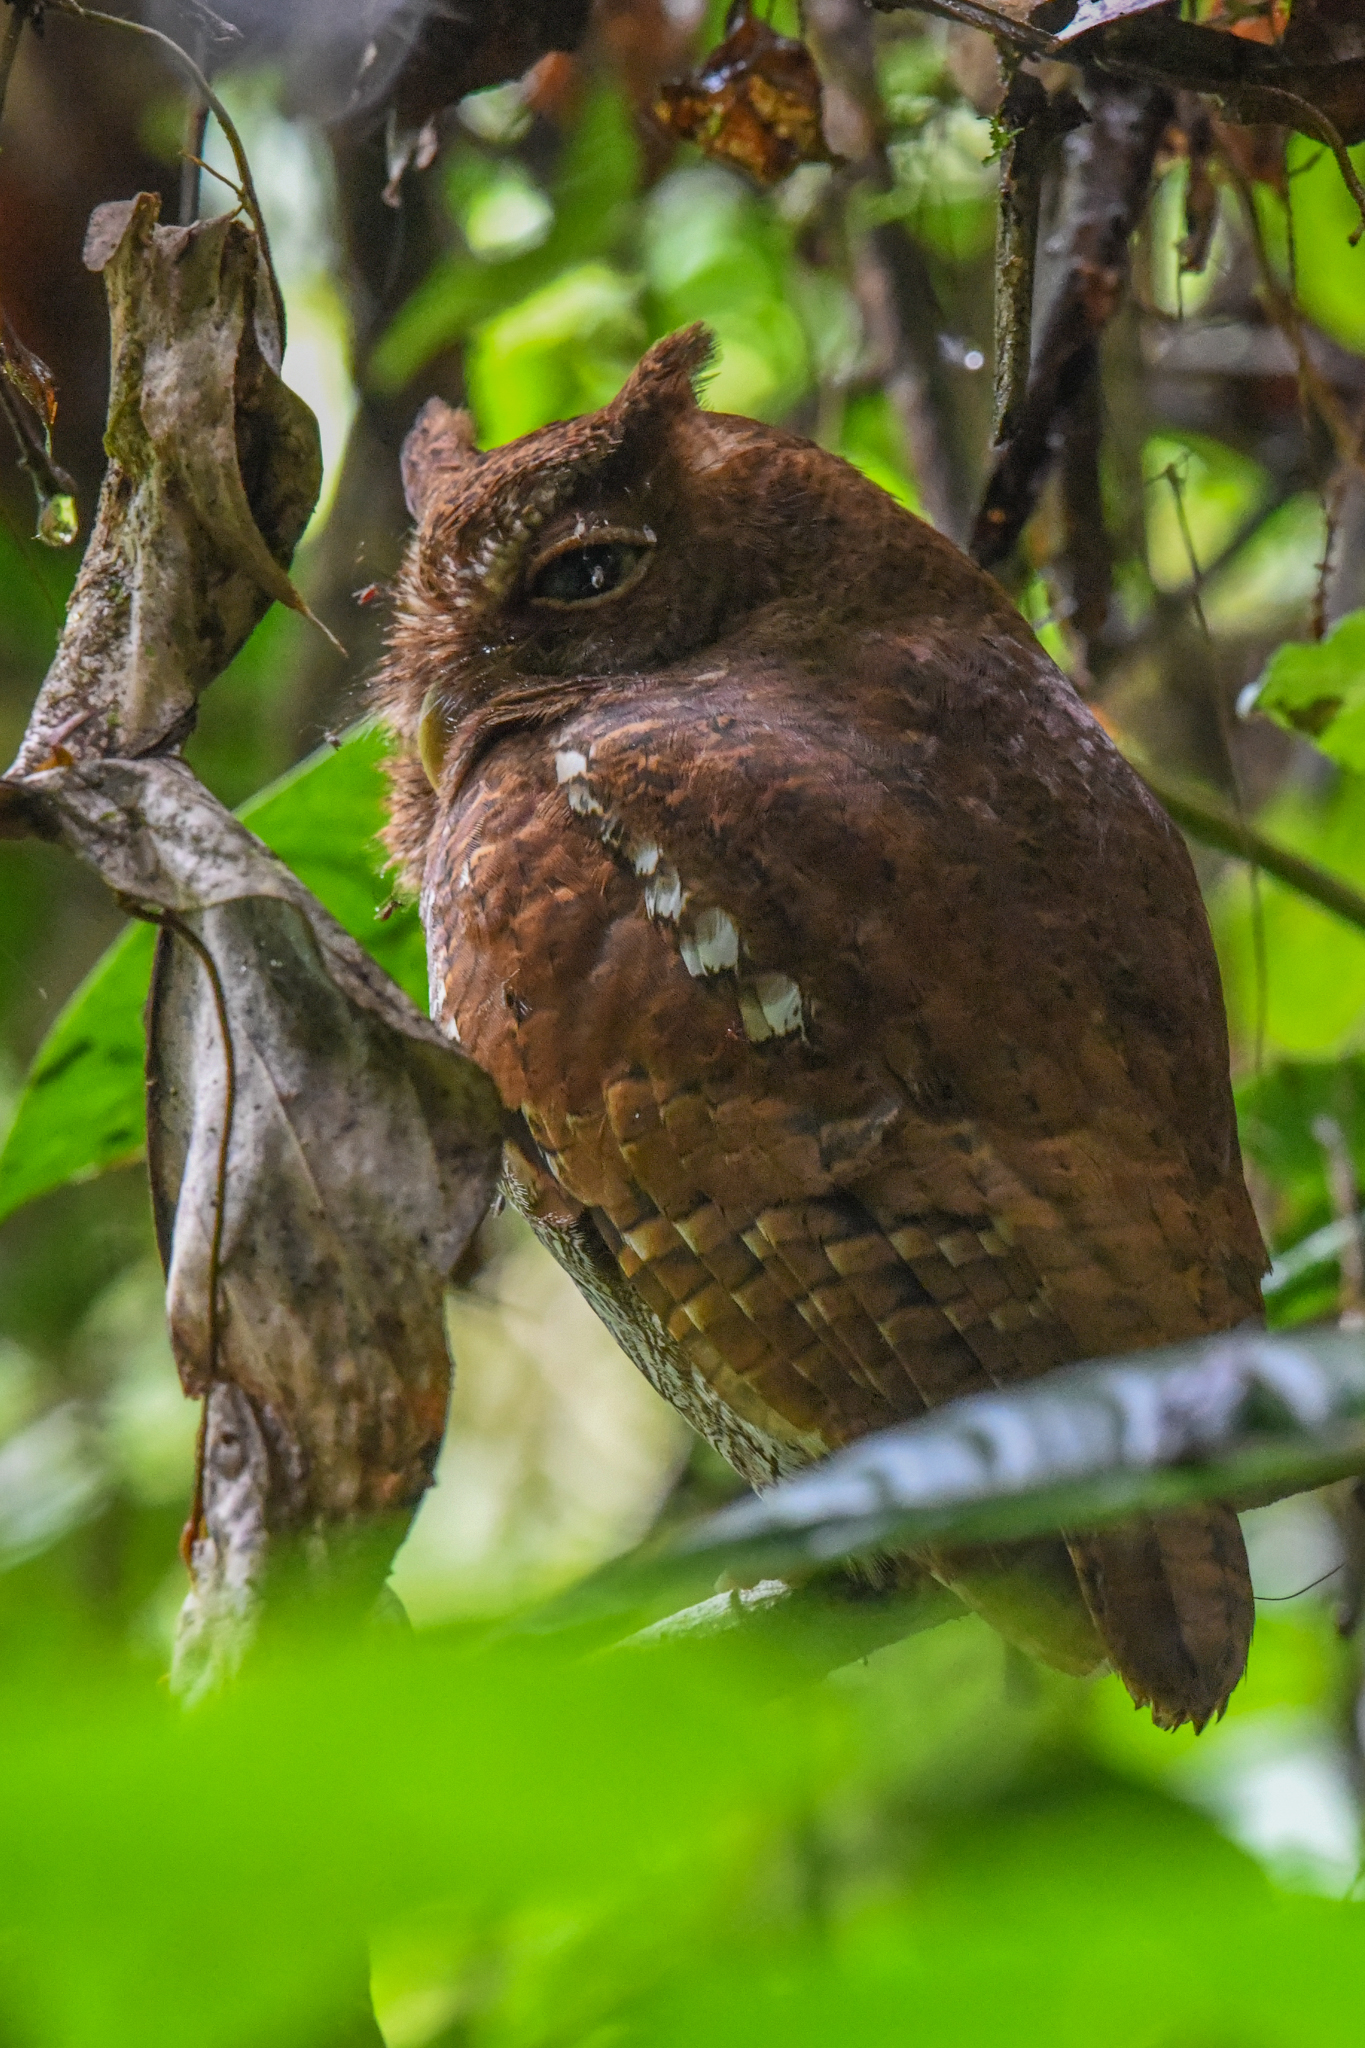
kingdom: Animalia
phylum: Chordata
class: Aves
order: Strigiformes
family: Strigidae
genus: Megascops
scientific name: Megascops guatemalae
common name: Vermiculated screech-owl
